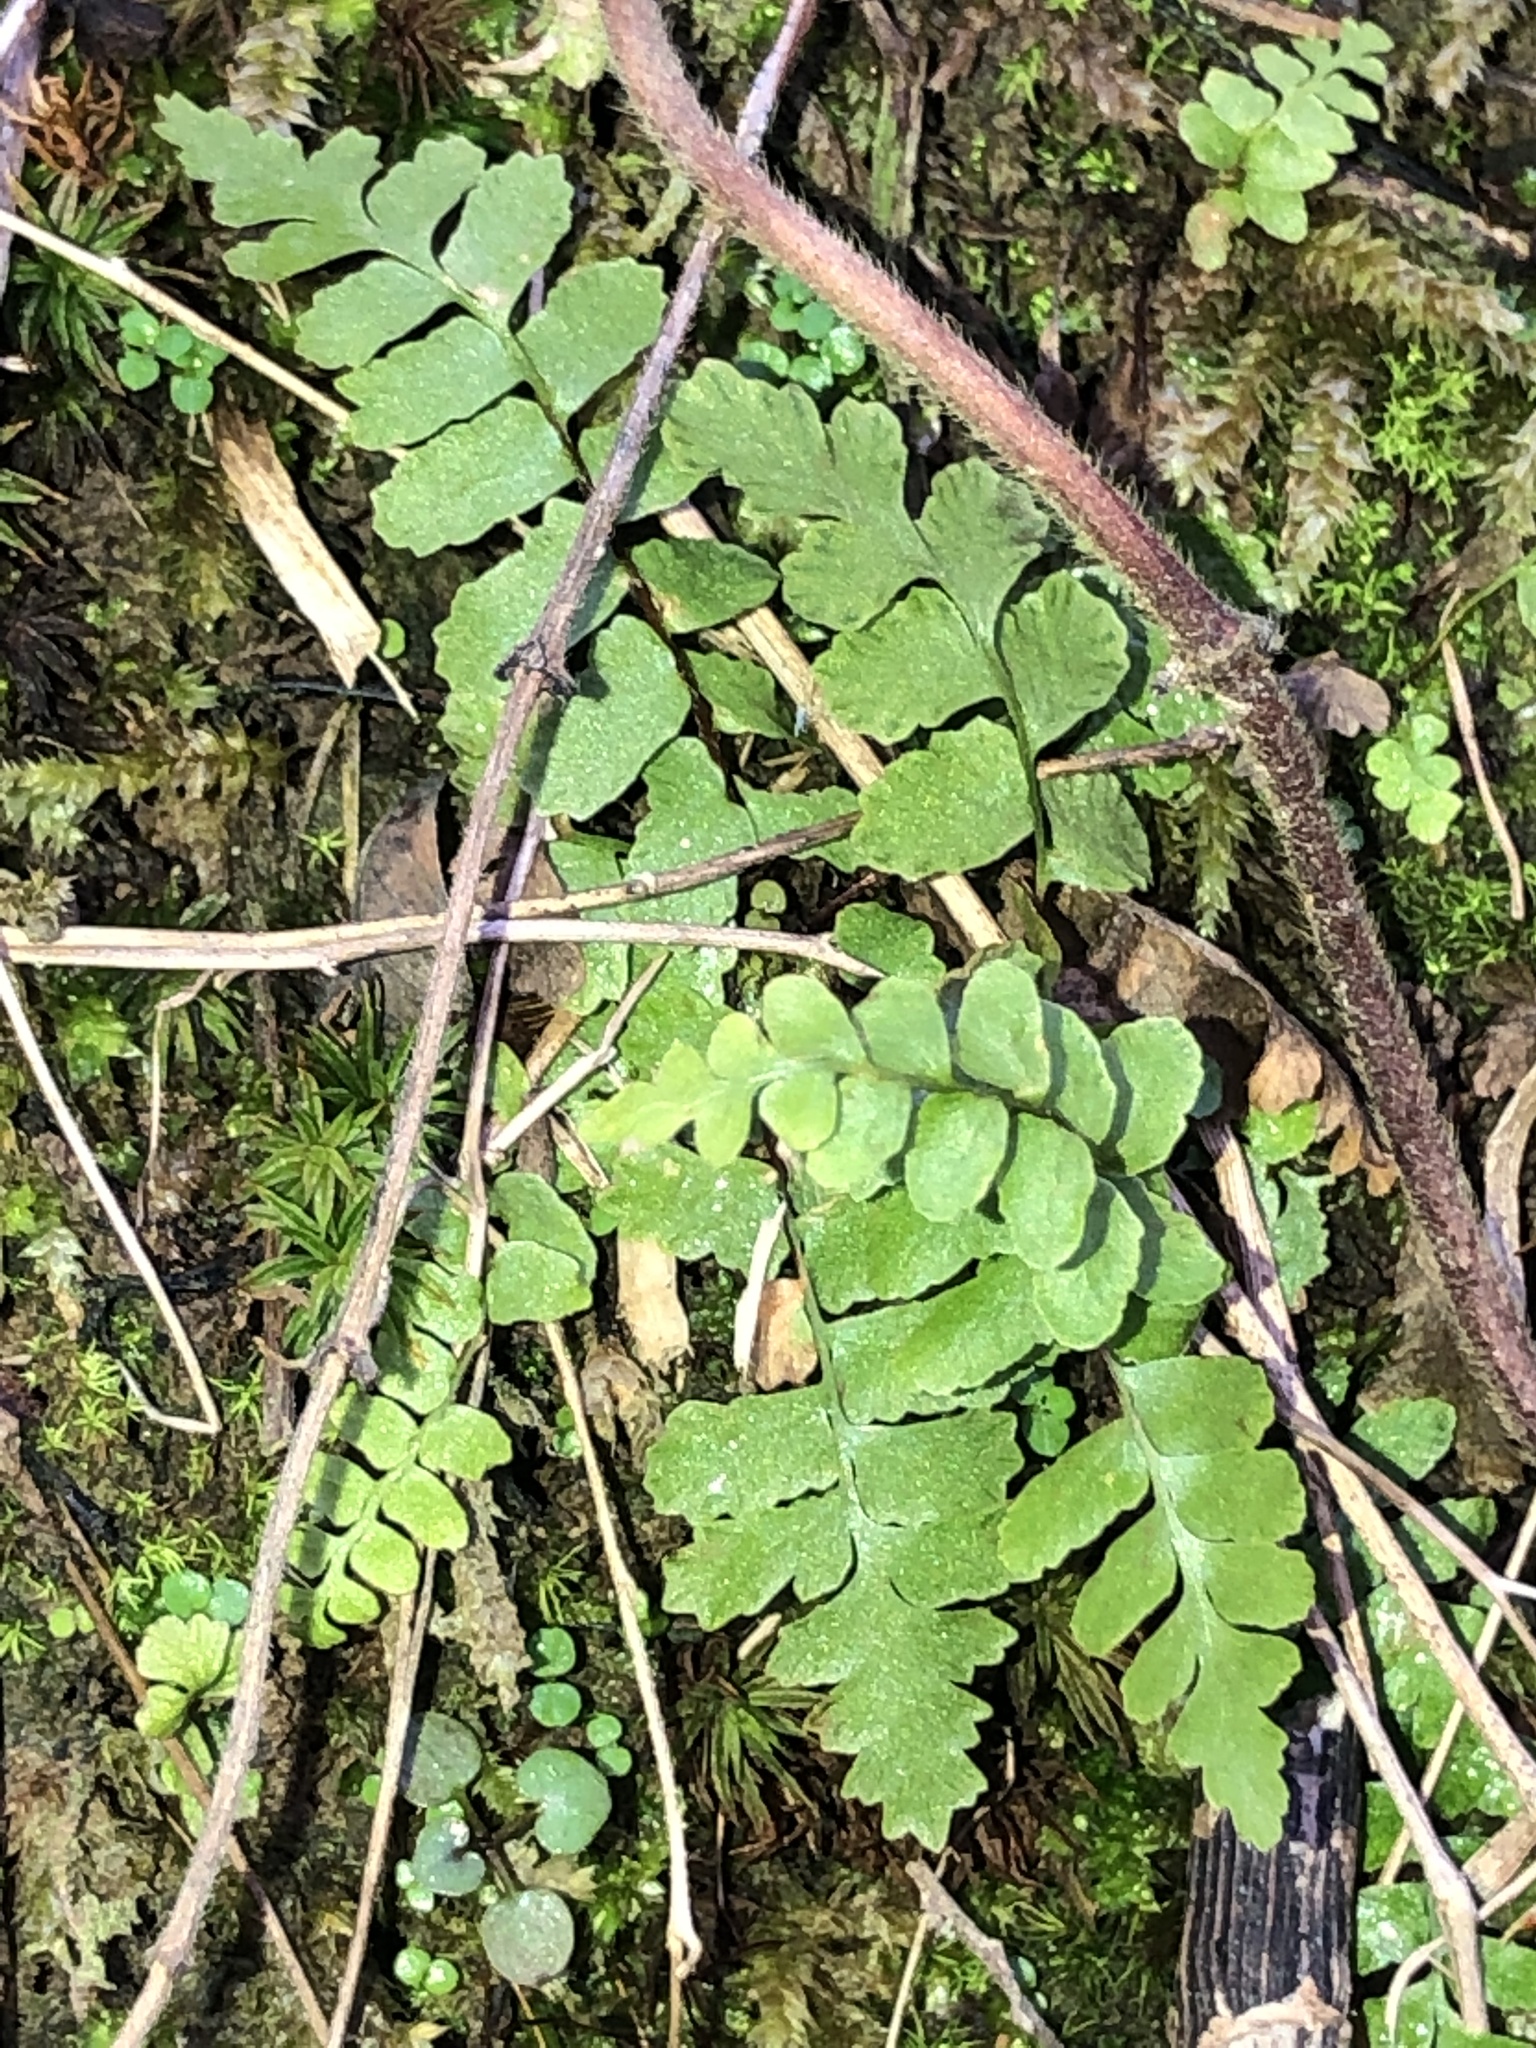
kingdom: Plantae
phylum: Tracheophyta
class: Polypodiopsida
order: Polypodiales
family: Aspleniaceae
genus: Asplenium
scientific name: Asplenium platyneuron
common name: Ebony spleenwort
